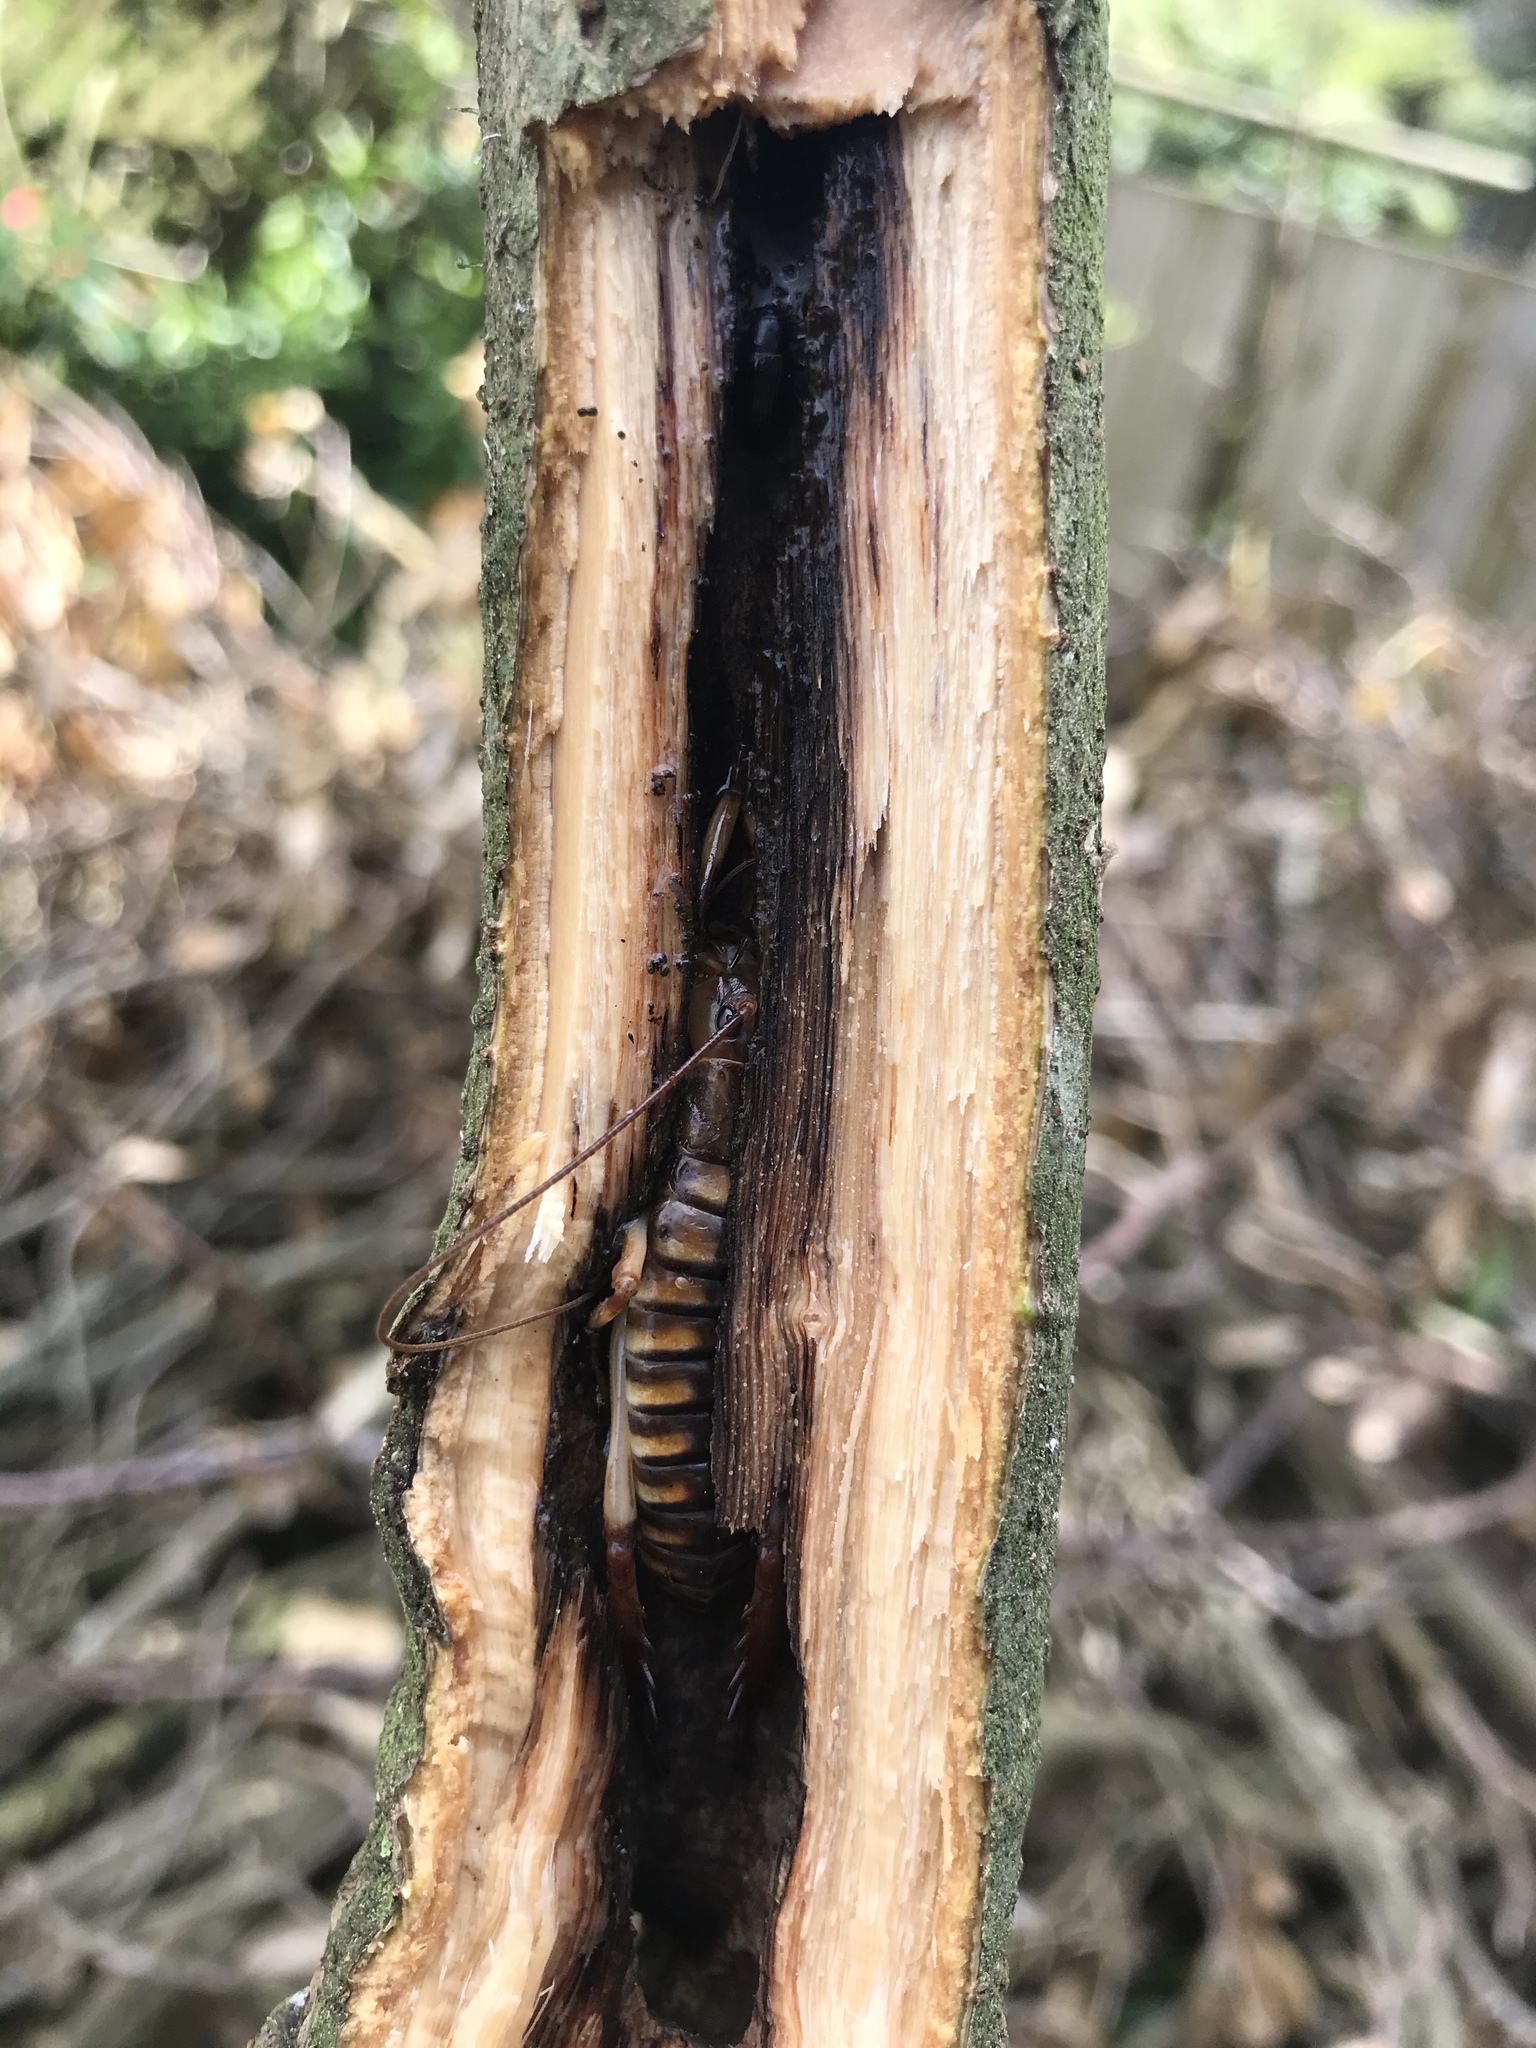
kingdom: Animalia
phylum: Arthropoda
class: Insecta
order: Orthoptera
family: Anostostomatidae
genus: Hemideina
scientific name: Hemideina crassidens
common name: Wellington tree weta
